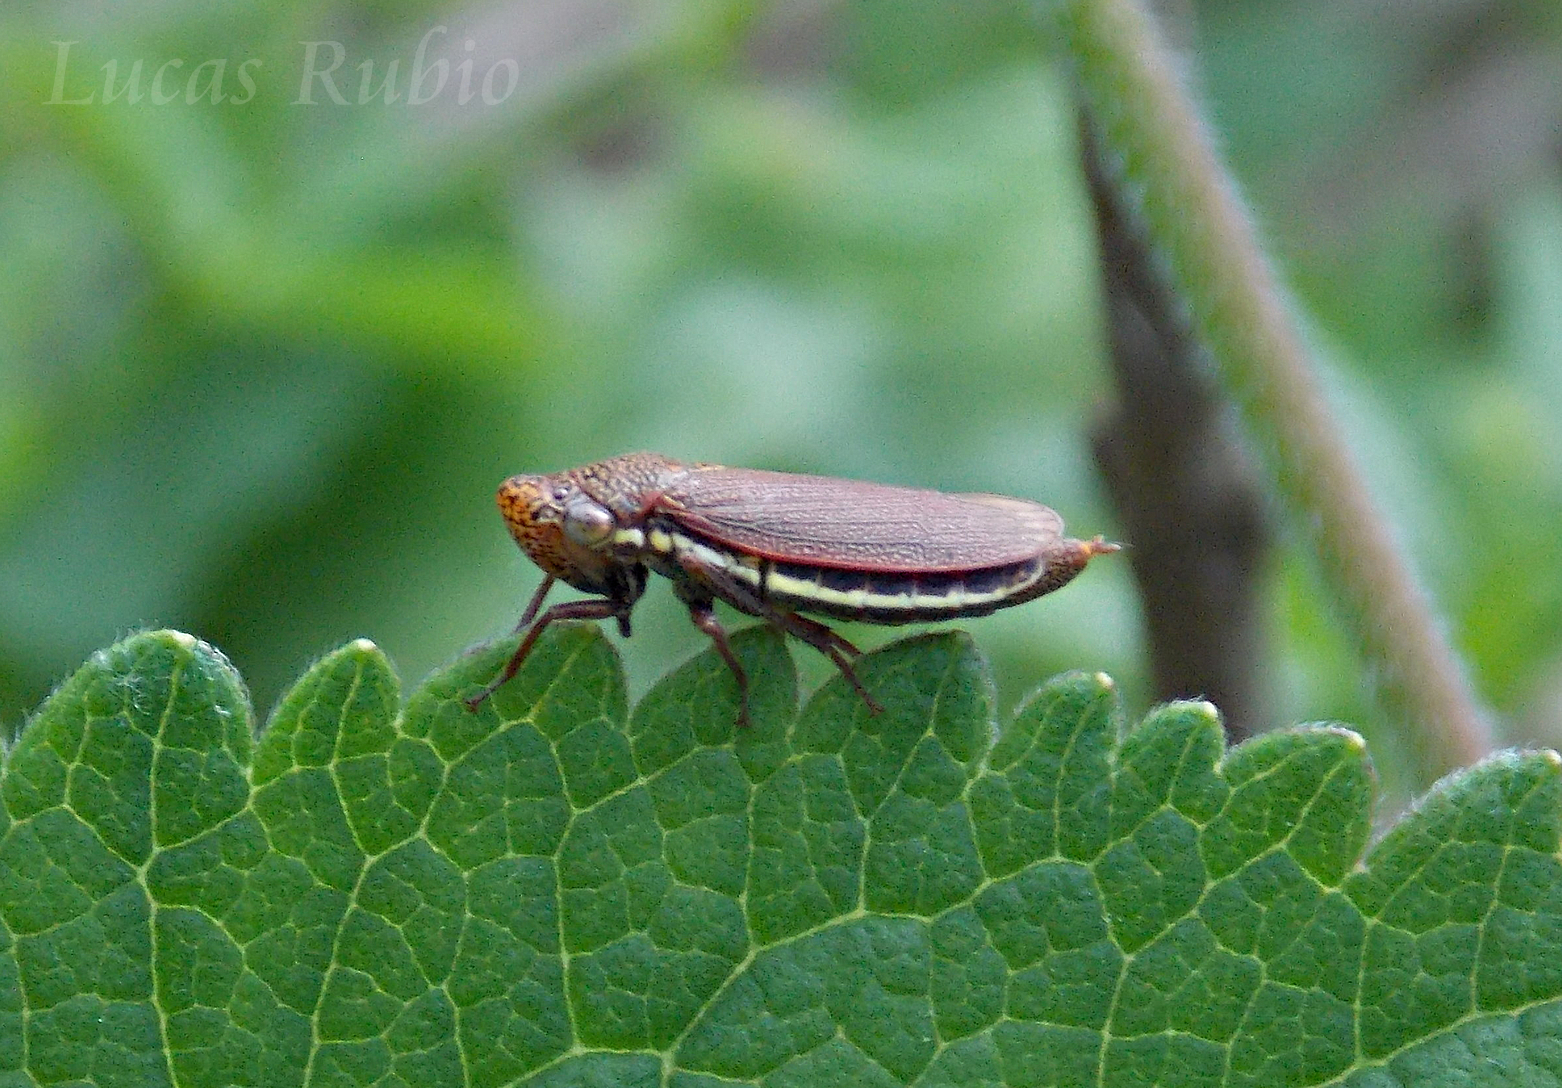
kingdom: Animalia
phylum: Arthropoda
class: Insecta
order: Hemiptera
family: Cicadellidae
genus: Tapajosa
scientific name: Tapajosa rubromarginata
